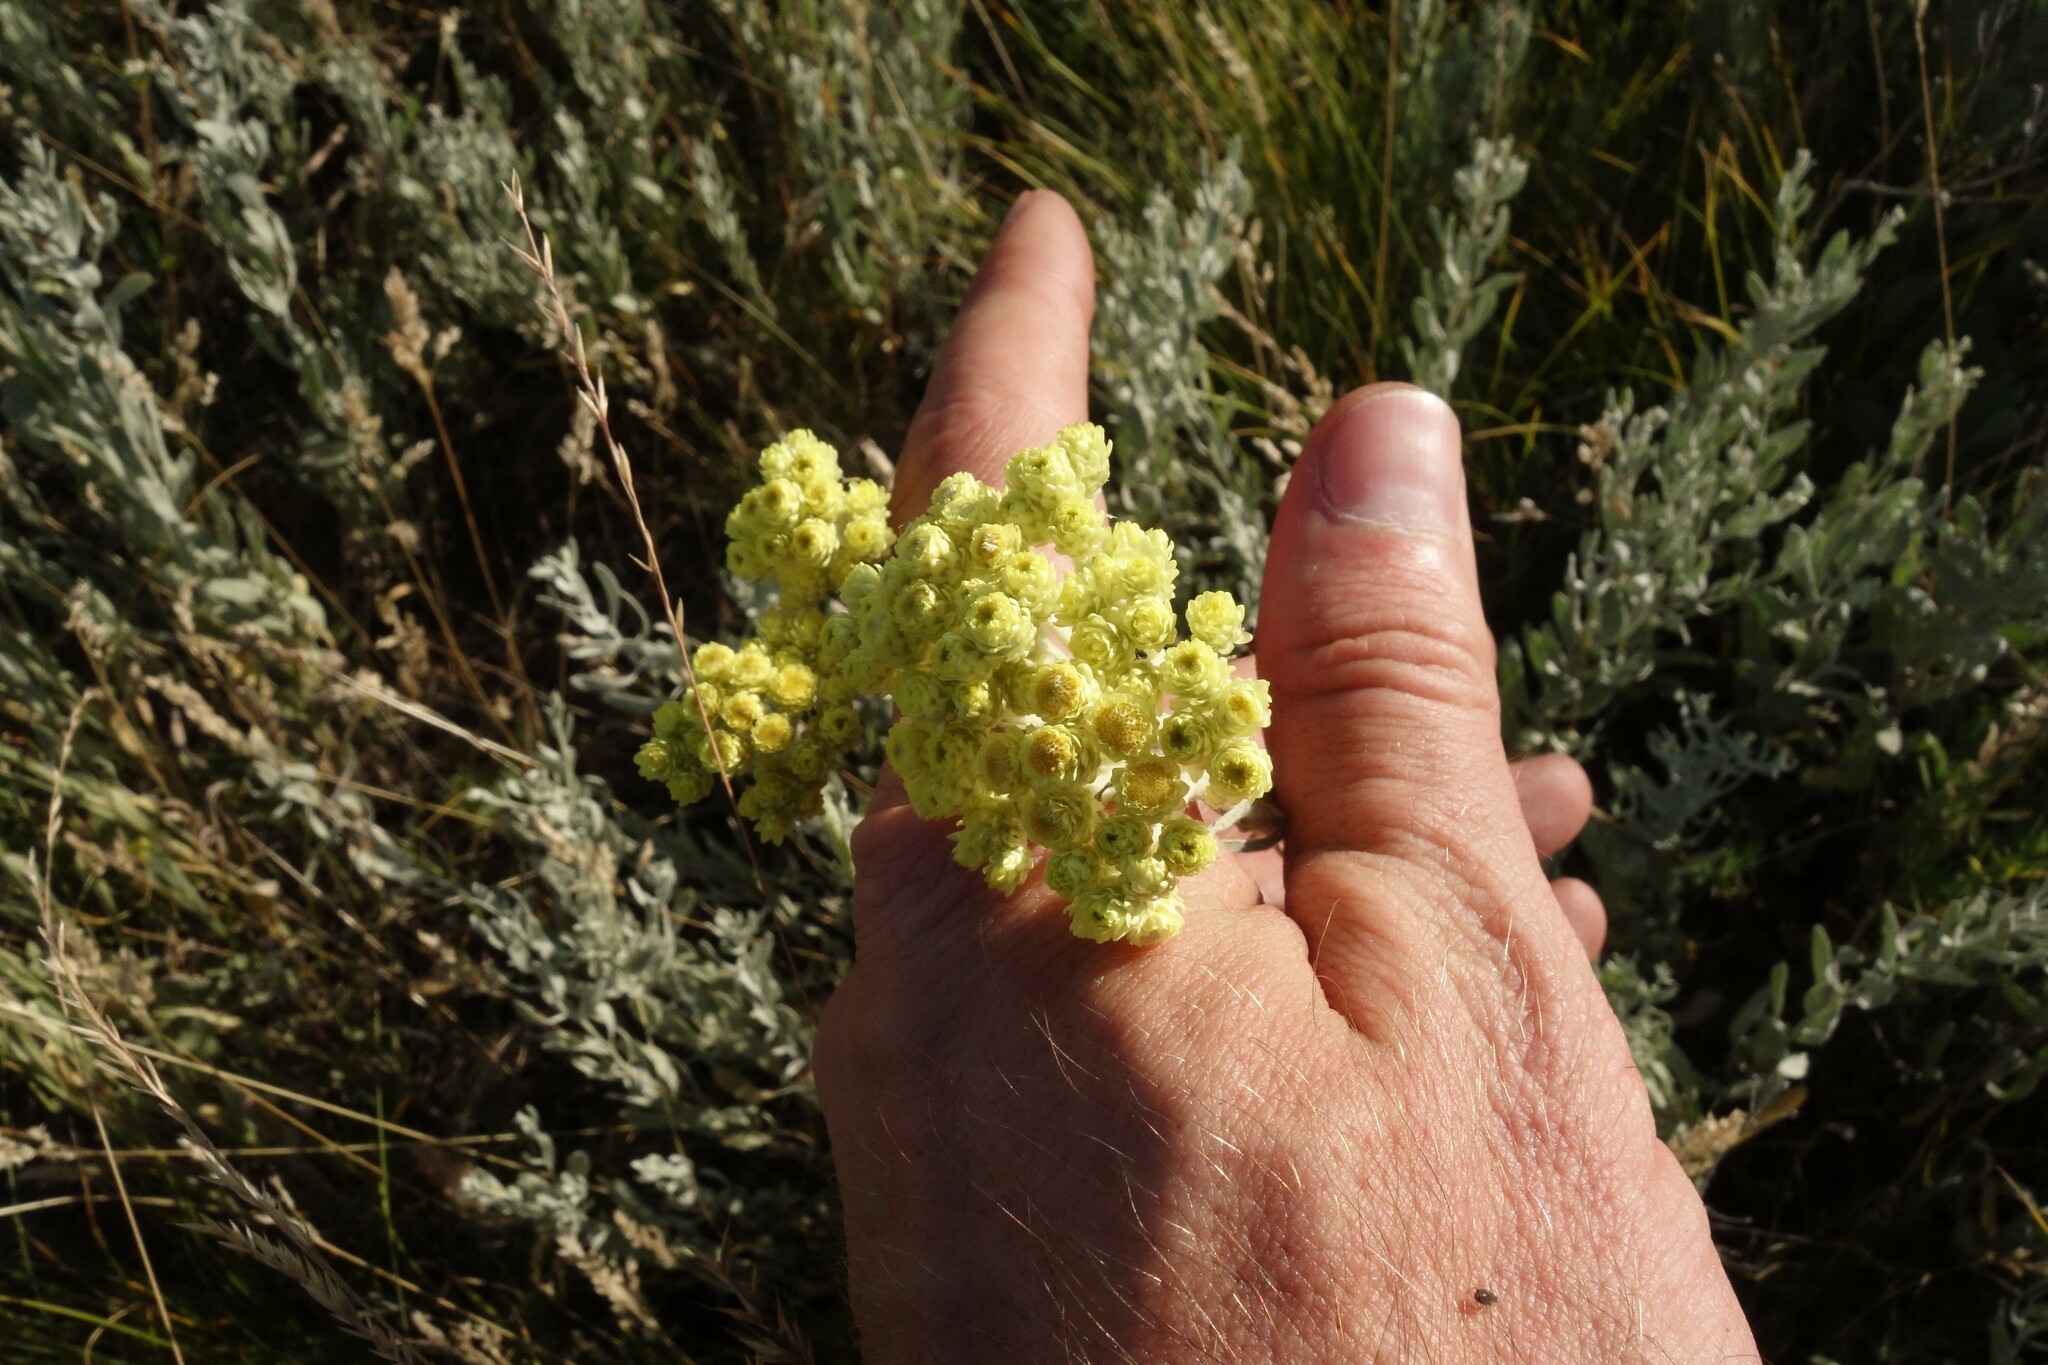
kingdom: Plantae
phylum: Tracheophyta
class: Magnoliopsida
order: Asterales
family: Asteraceae
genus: Helichrysum
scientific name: Helichrysum arenarium
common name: Strawflower
